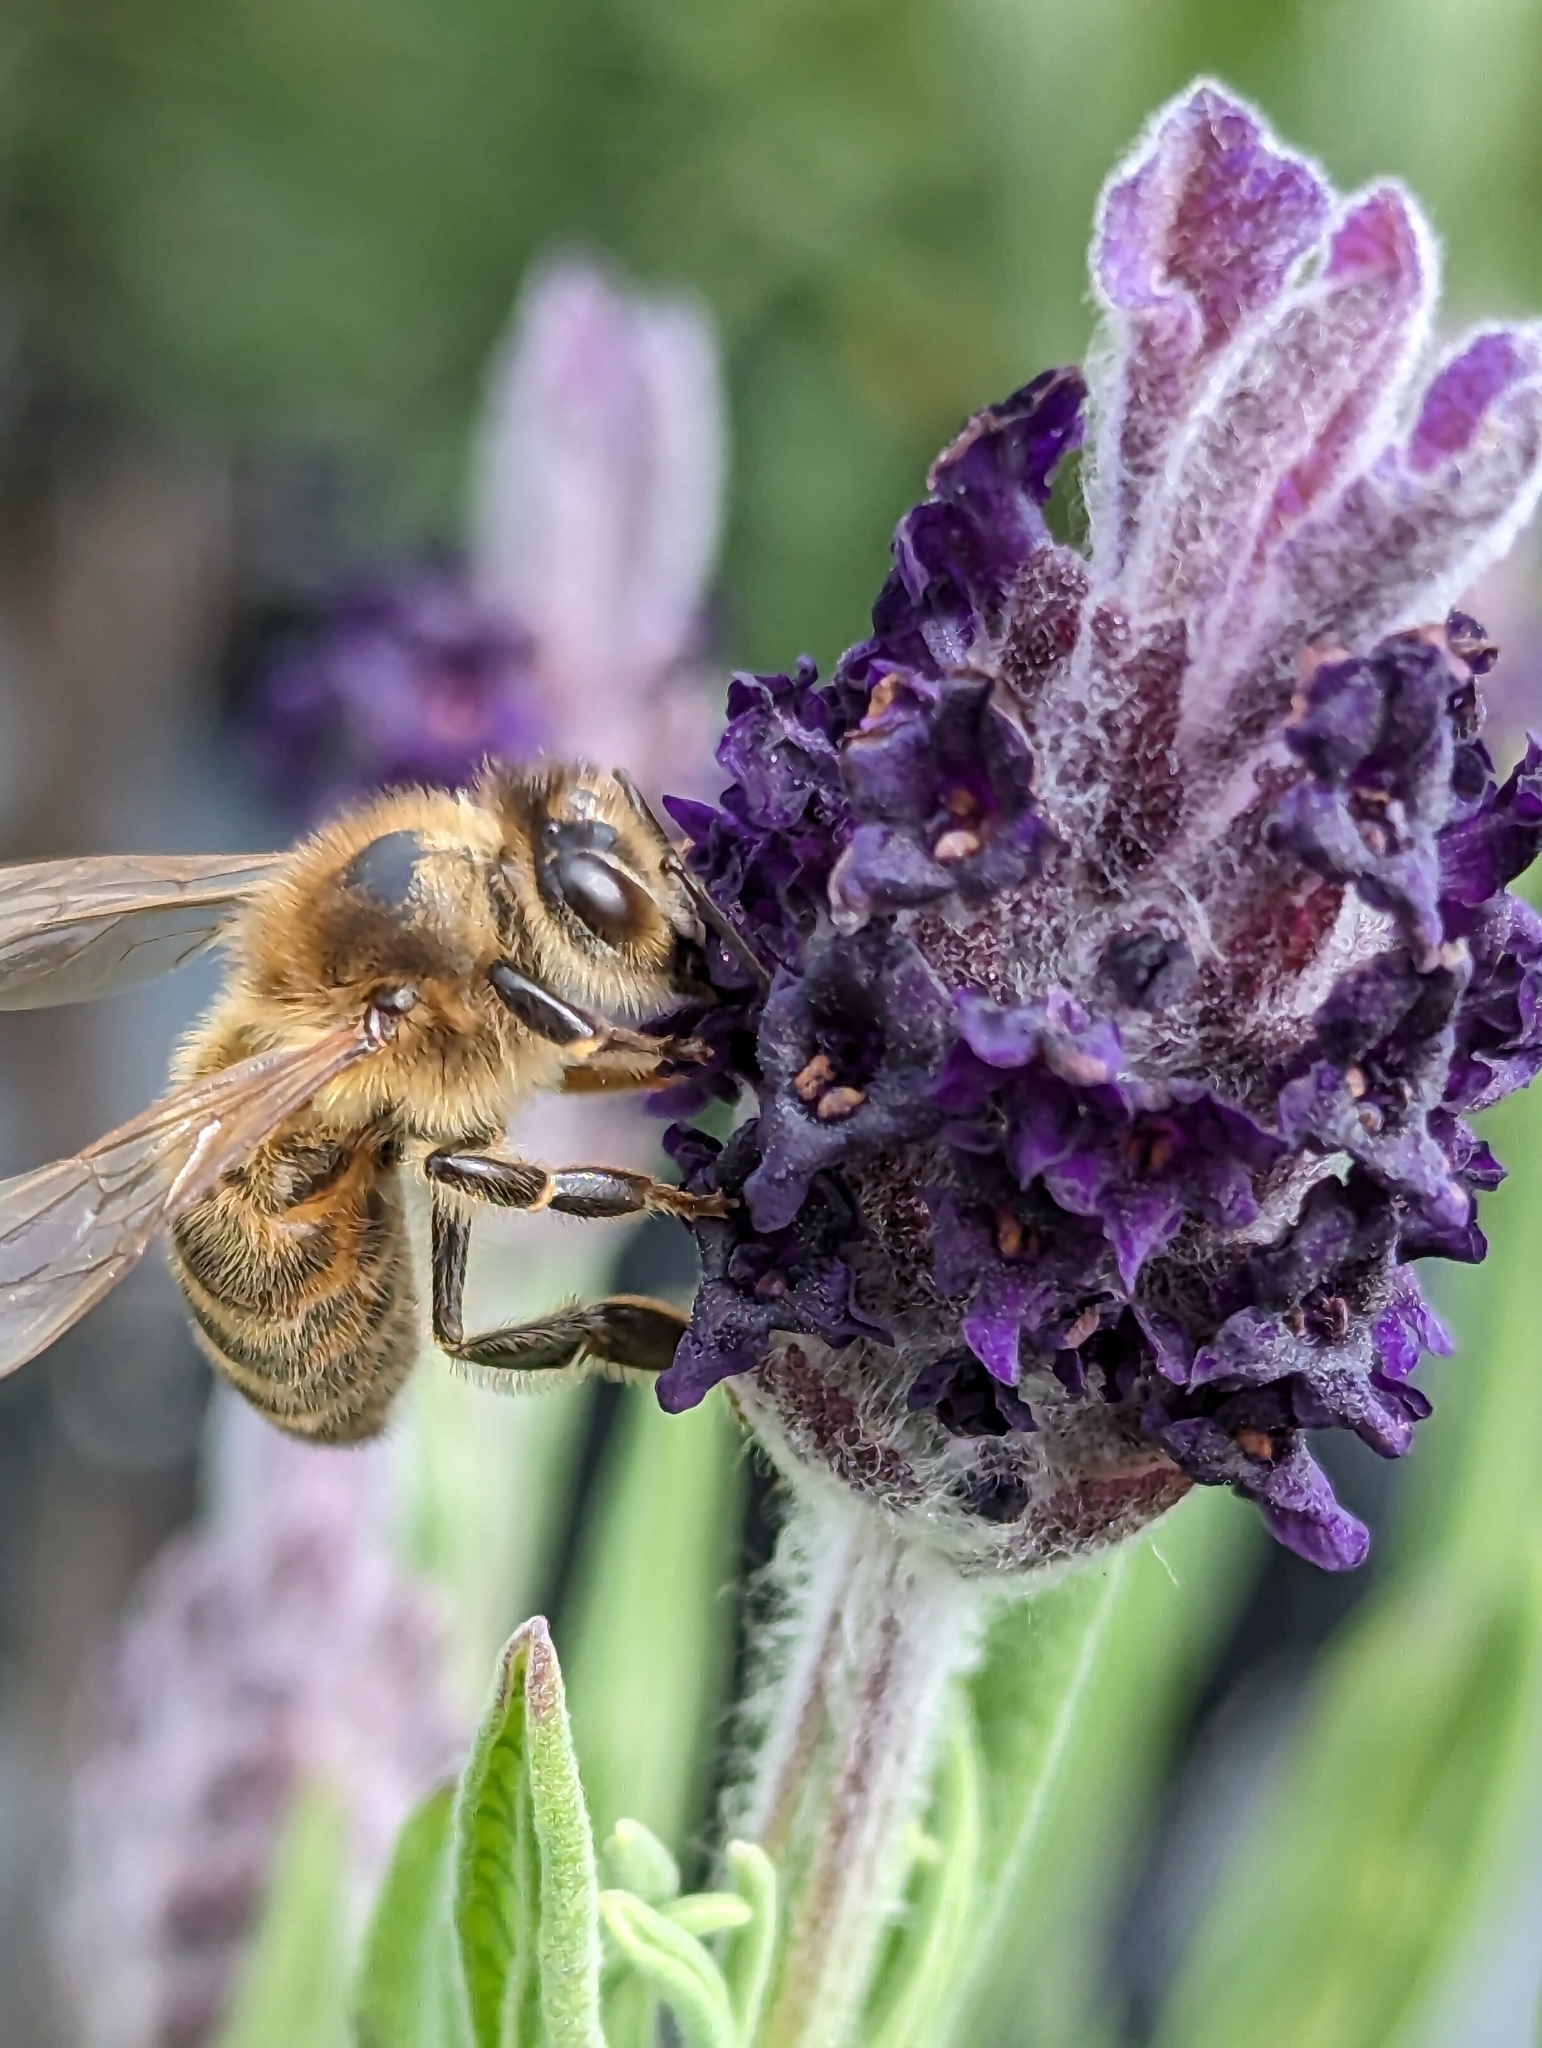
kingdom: Animalia
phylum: Arthropoda
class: Insecta
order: Hymenoptera
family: Apidae
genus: Apis
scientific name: Apis mellifera
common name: Honey bee
